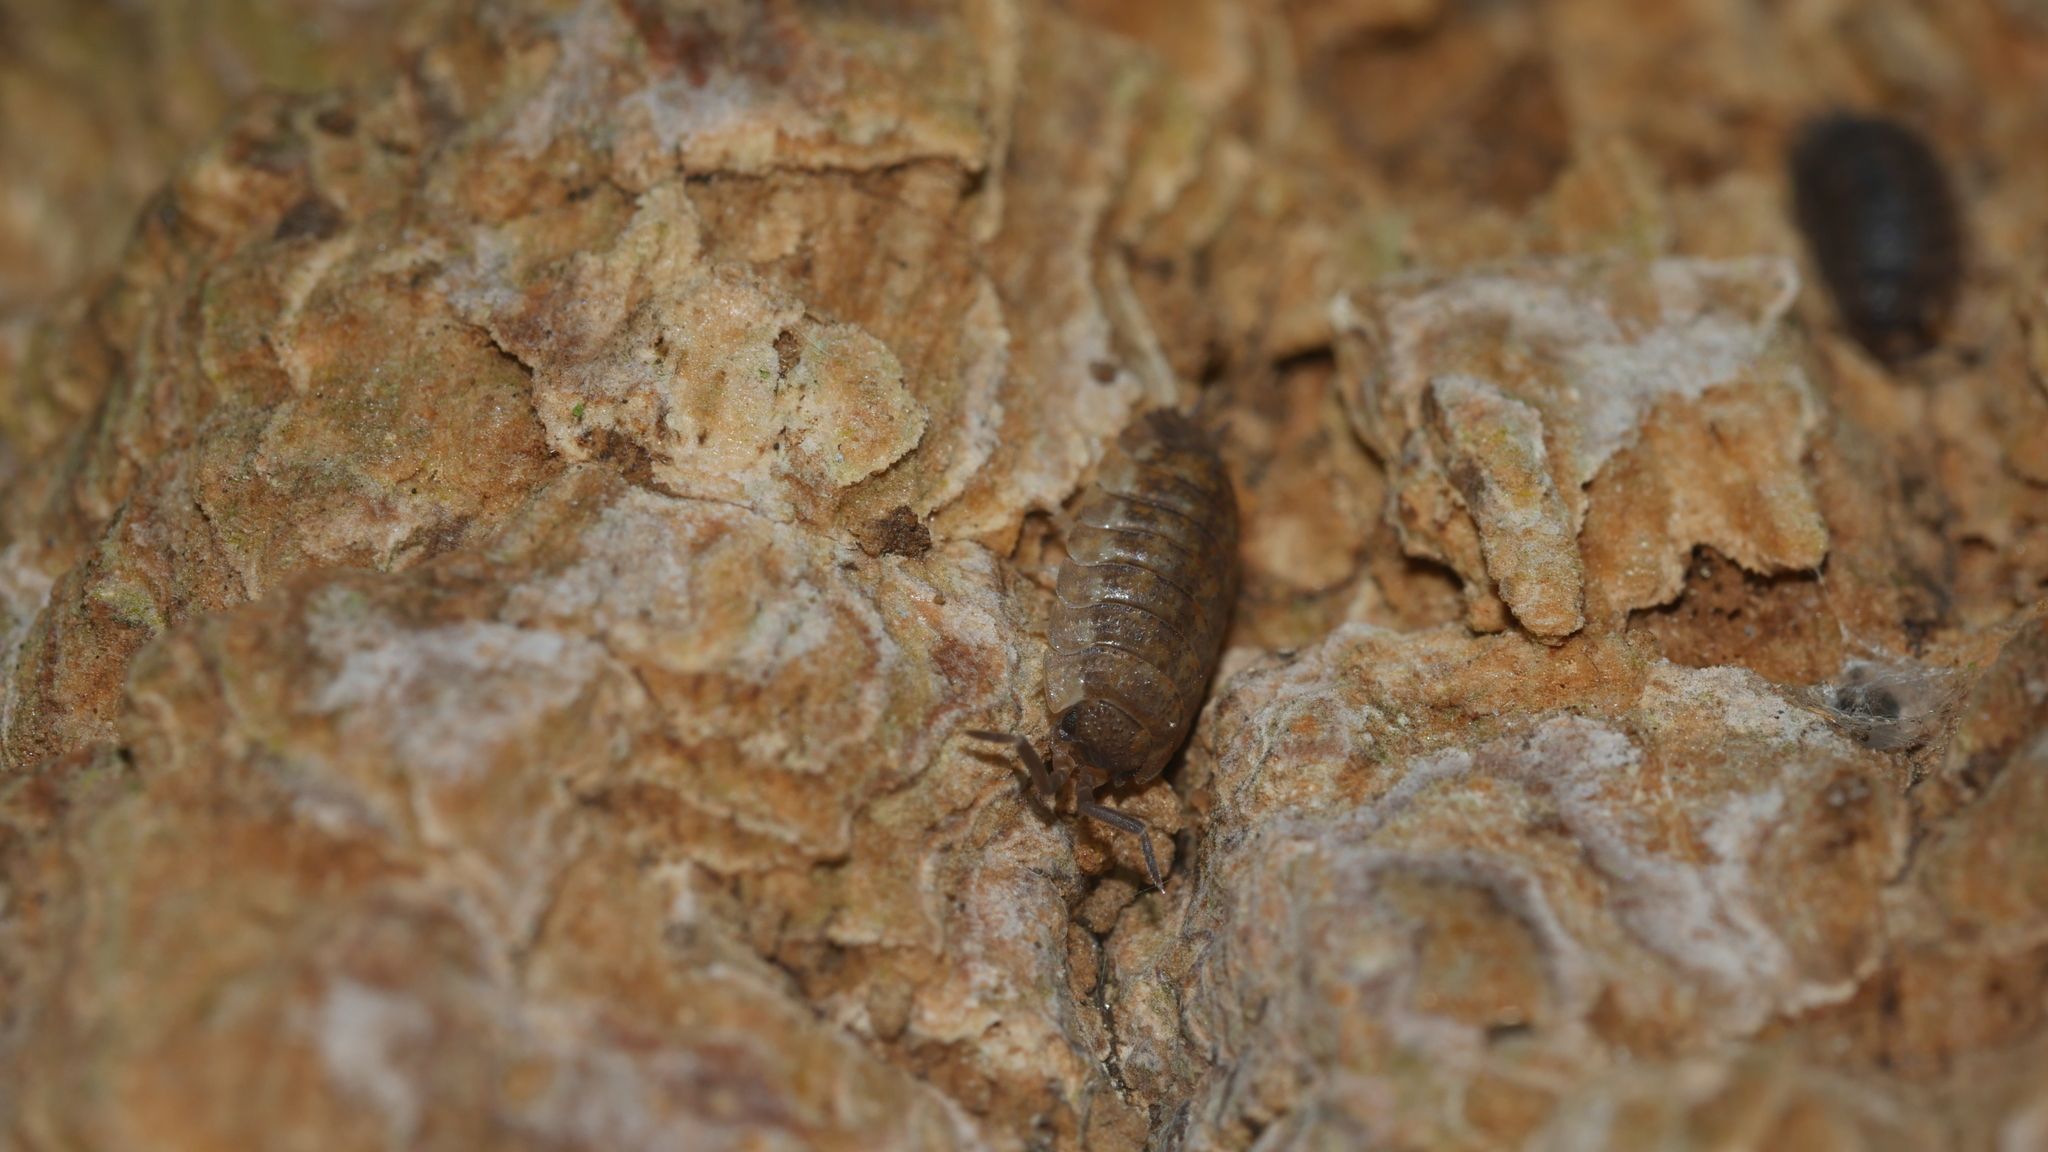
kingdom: Animalia
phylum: Arthropoda
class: Malacostraca
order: Isopoda
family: Porcellionidae
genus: Porcellio
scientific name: Porcellio scaber
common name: Common rough woodlouse
